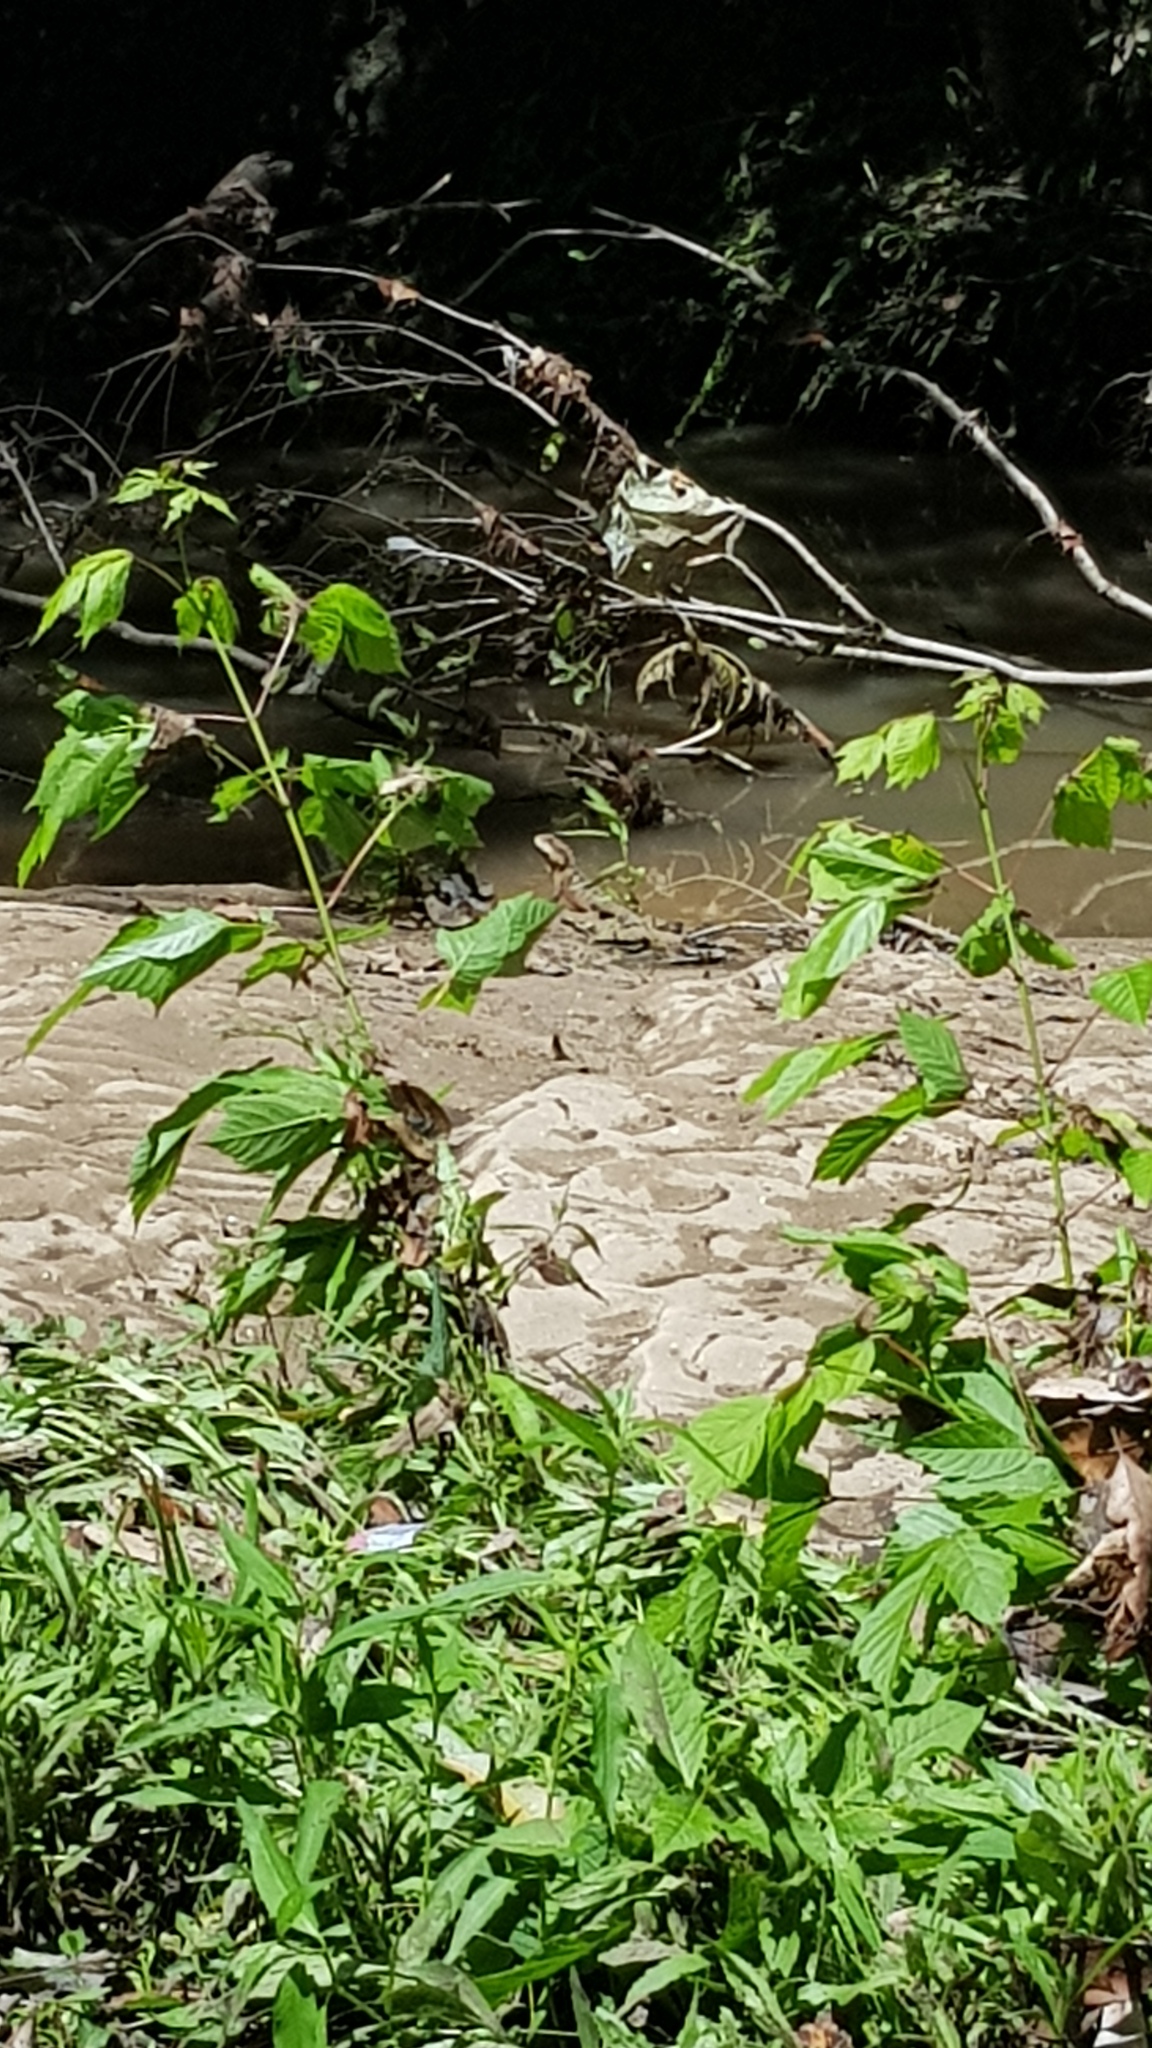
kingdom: Animalia
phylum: Chordata
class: Squamata
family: Agamidae
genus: Intellagama
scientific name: Intellagama lesueurii
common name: Eastern water dragon
